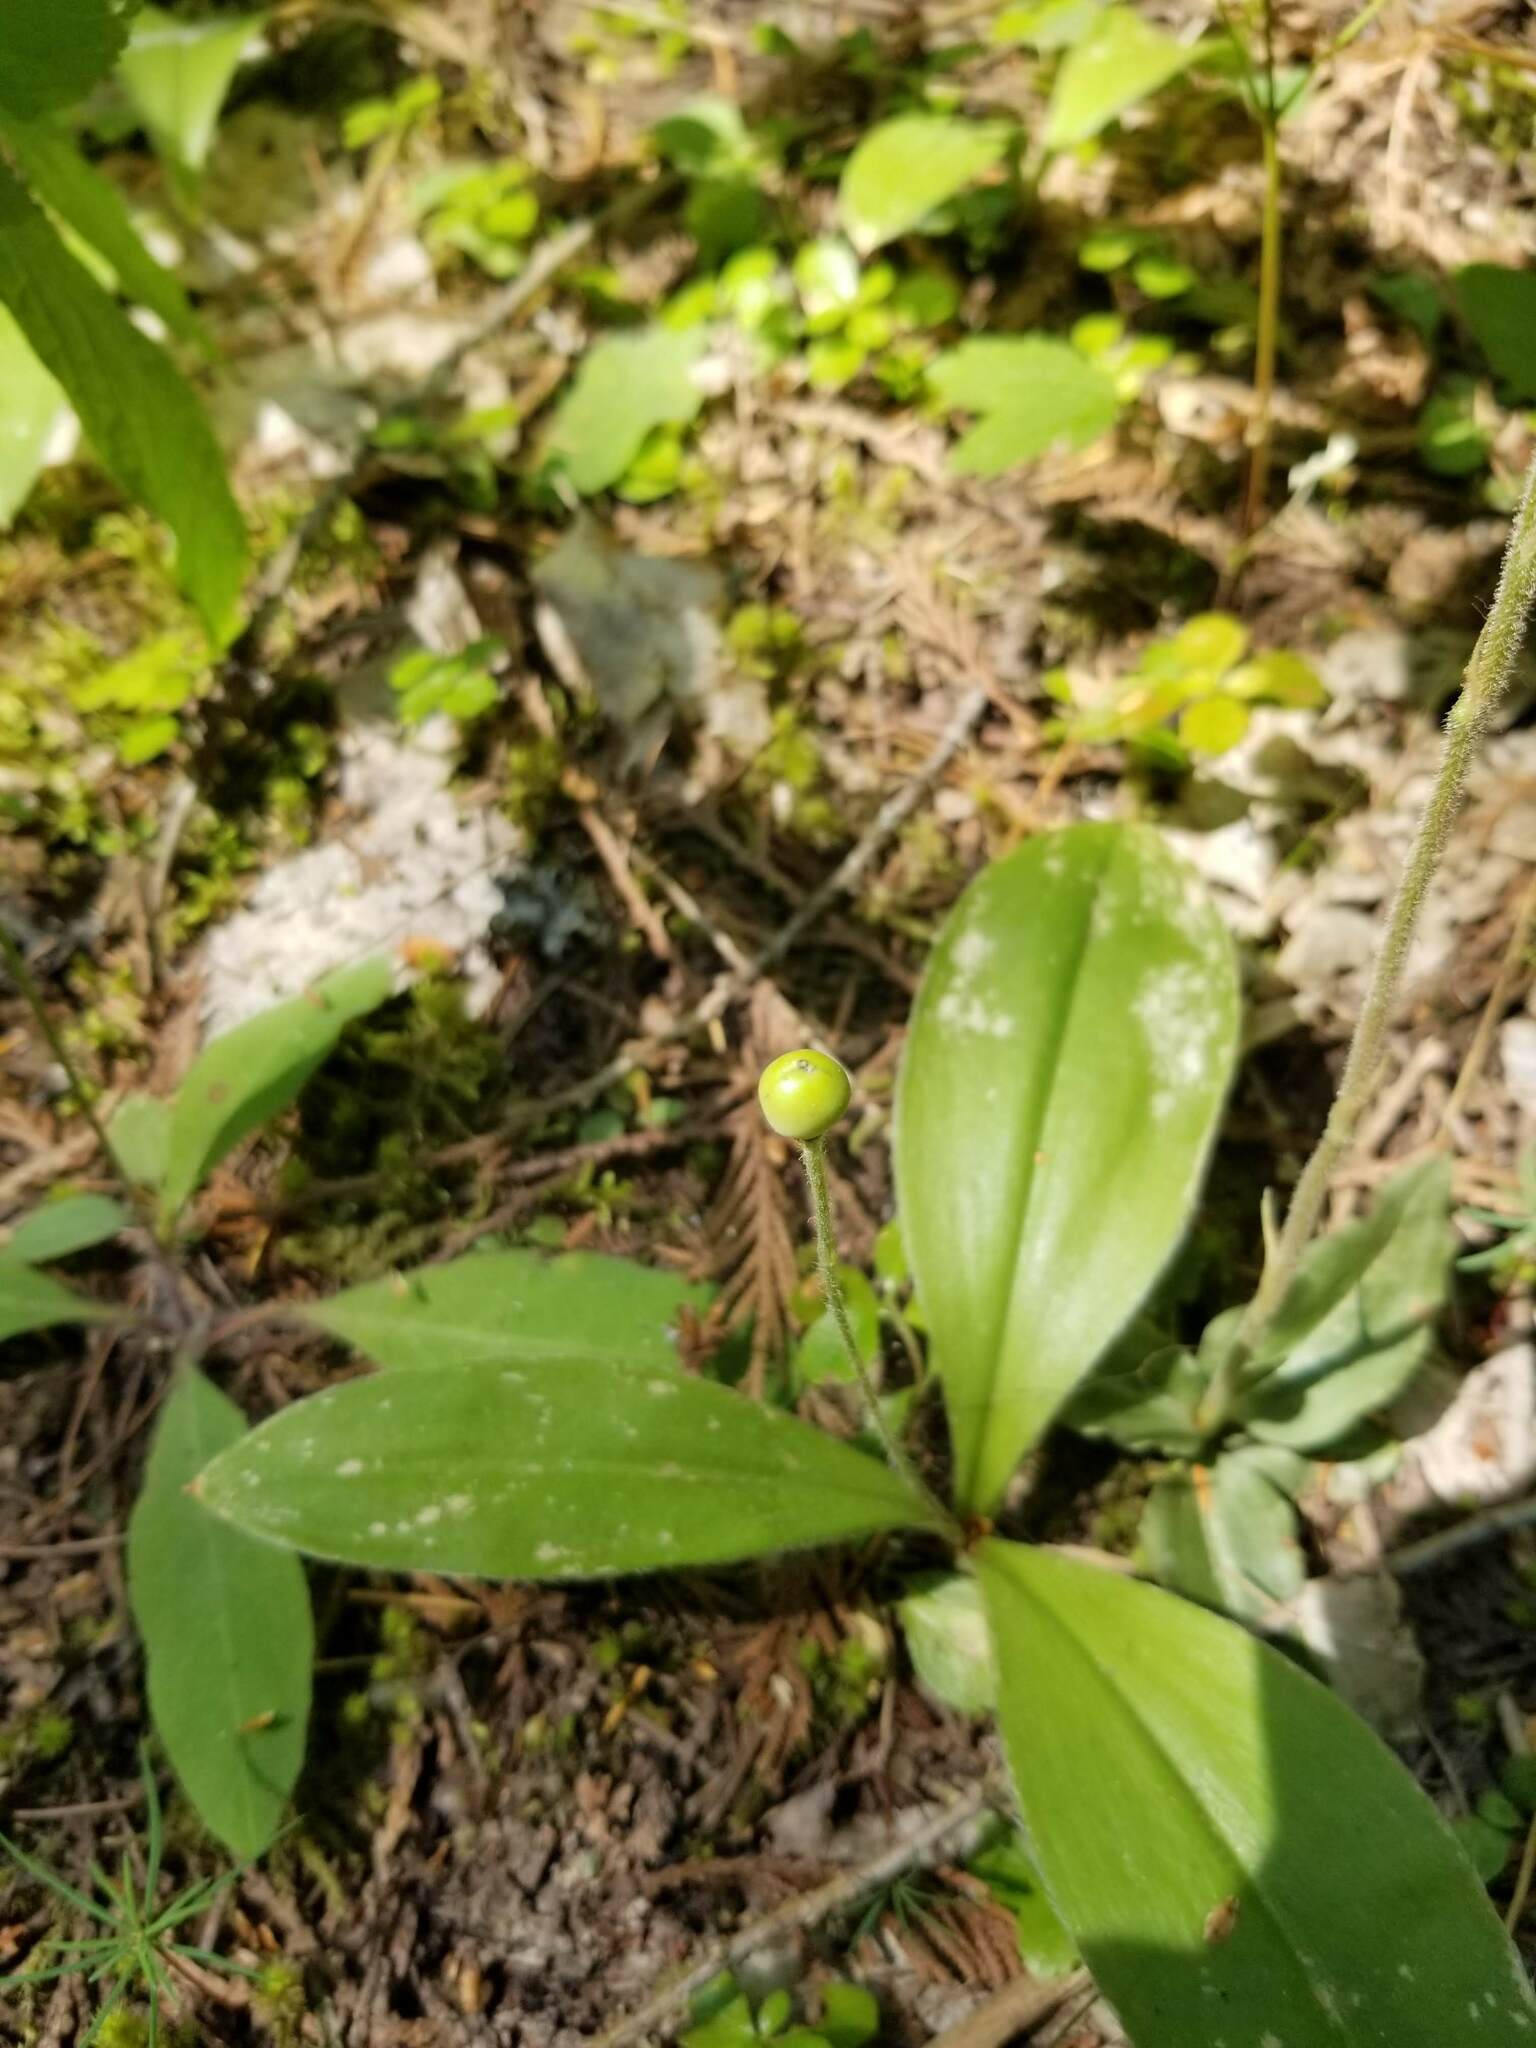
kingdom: Plantae
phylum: Tracheophyta
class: Liliopsida
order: Liliales
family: Liliaceae
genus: Clintonia
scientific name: Clintonia uniflora
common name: Queen's cup
